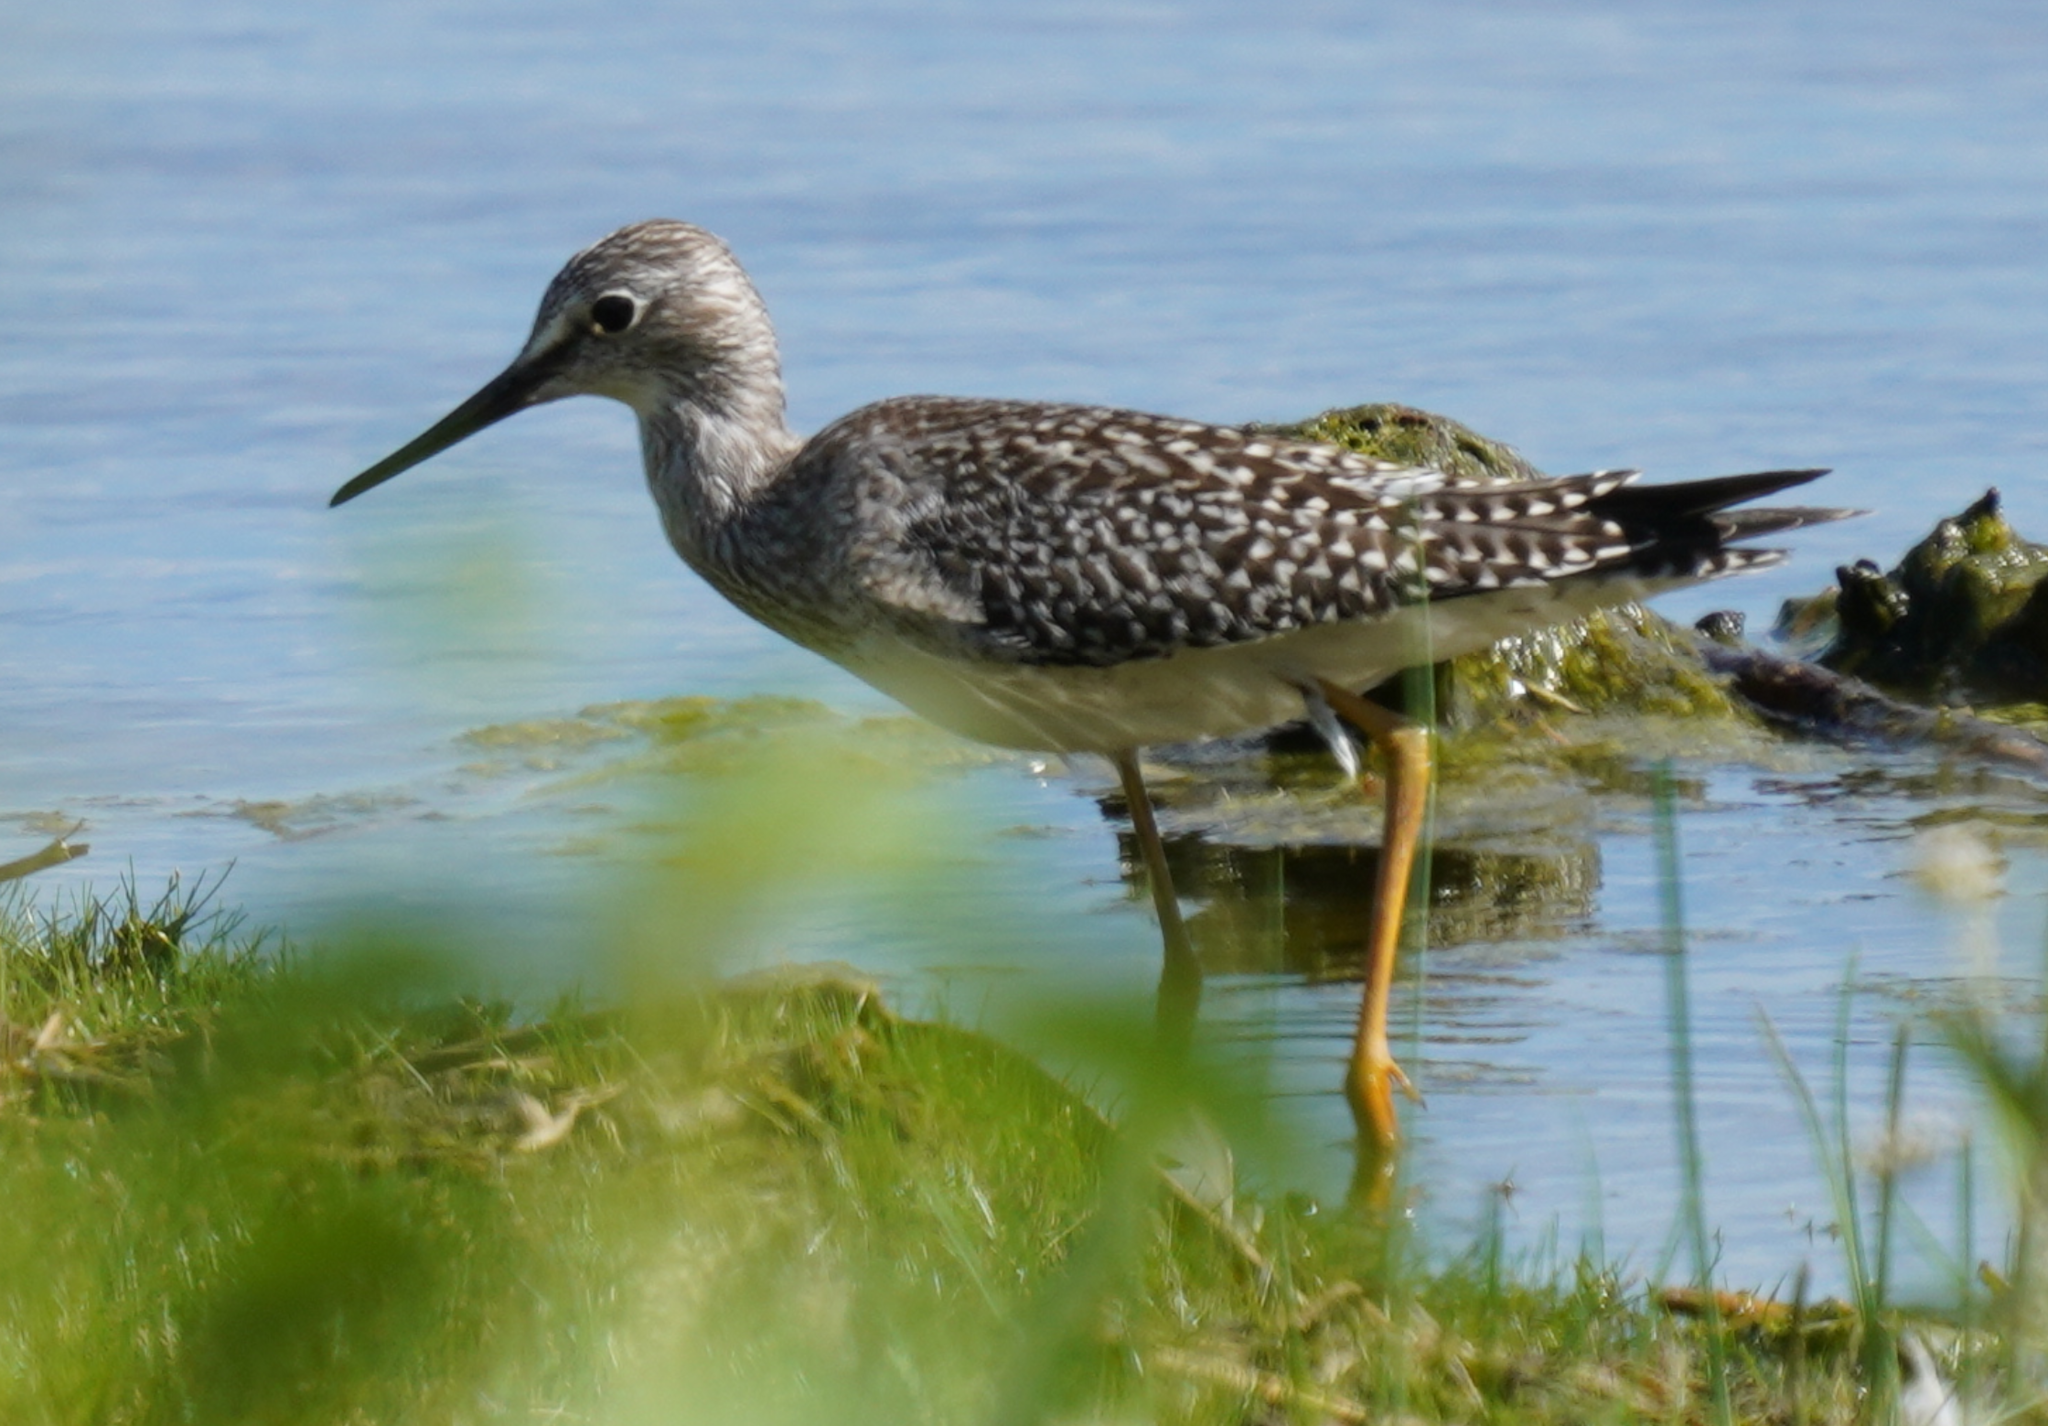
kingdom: Animalia
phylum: Chordata
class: Aves
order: Charadriiformes
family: Scolopacidae
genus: Tringa
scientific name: Tringa flavipes
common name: Lesser yellowlegs
